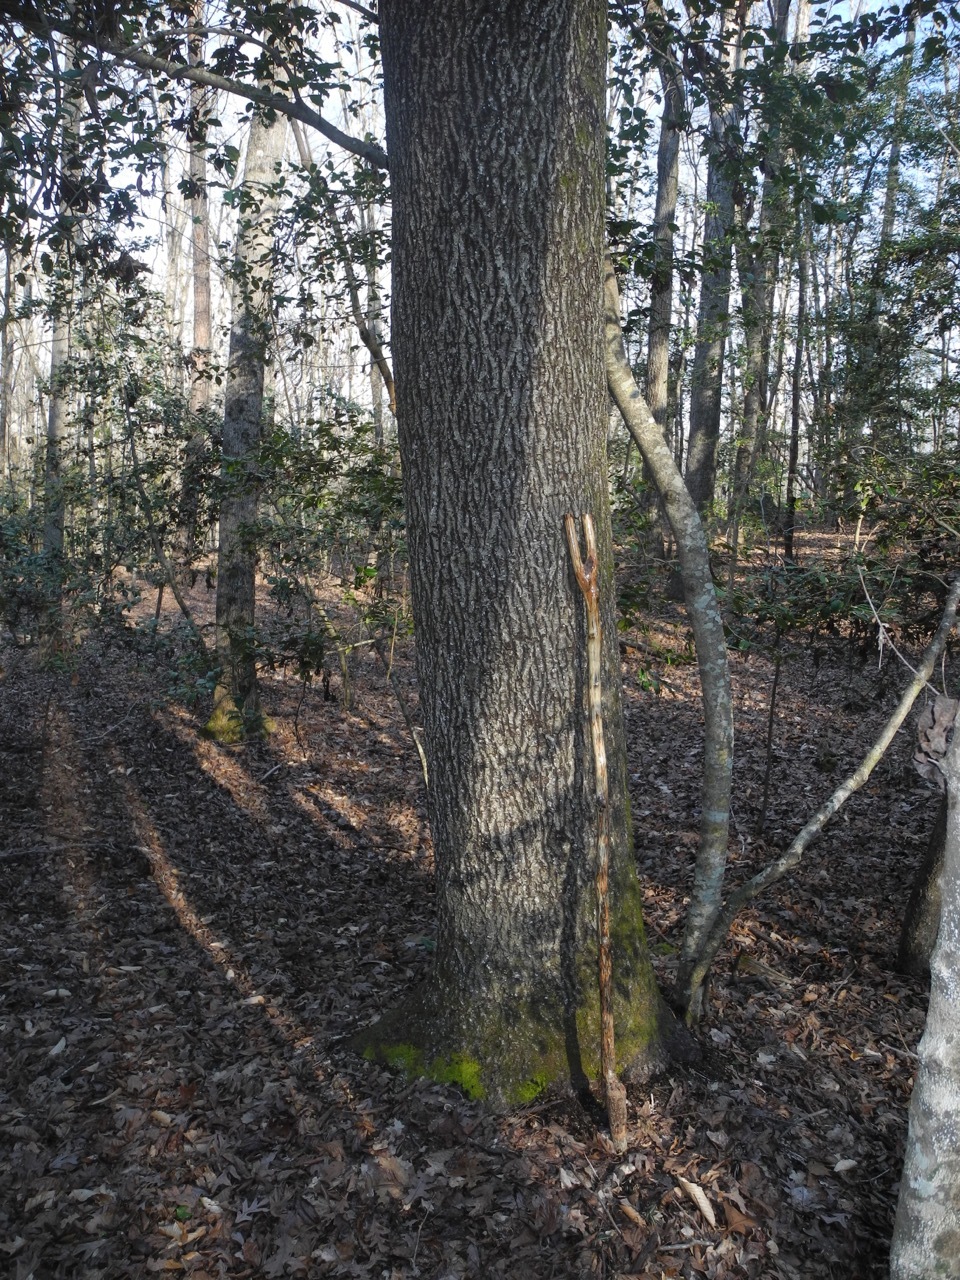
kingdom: Plantae
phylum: Tracheophyta
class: Magnoliopsida
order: Fagales
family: Juglandaceae
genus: Carya
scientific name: Carya alba
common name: Mockernut hickory
